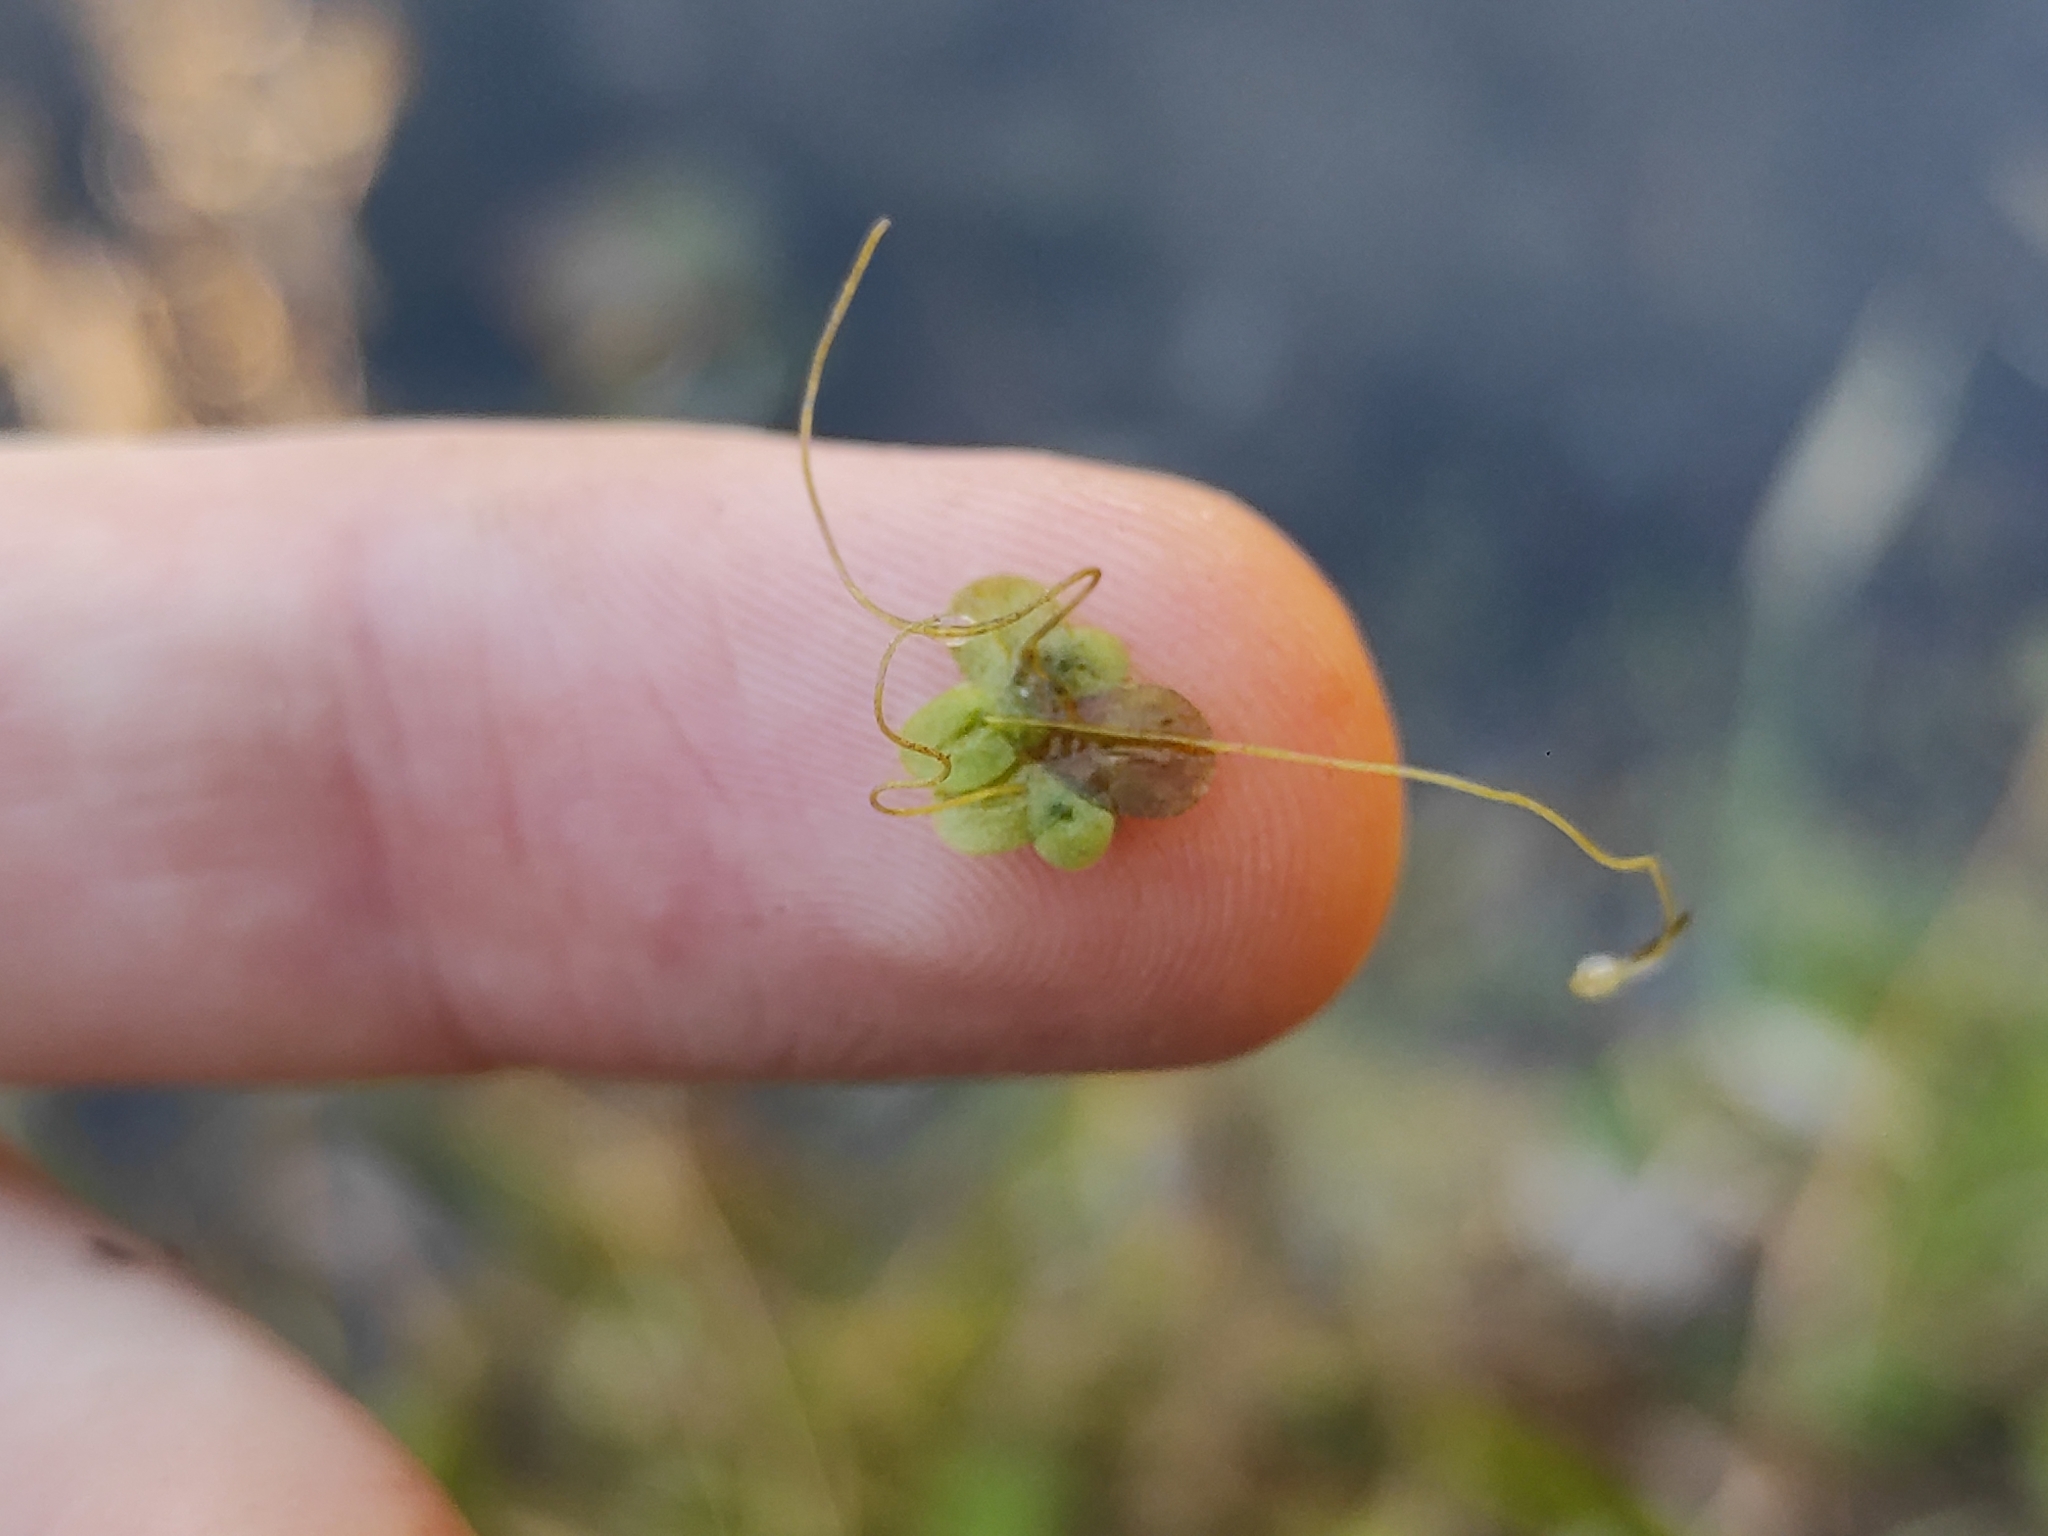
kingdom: Plantae
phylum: Tracheophyta
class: Liliopsida
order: Alismatales
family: Araceae
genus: Lemna
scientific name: Lemna minor
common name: Common duckweed
